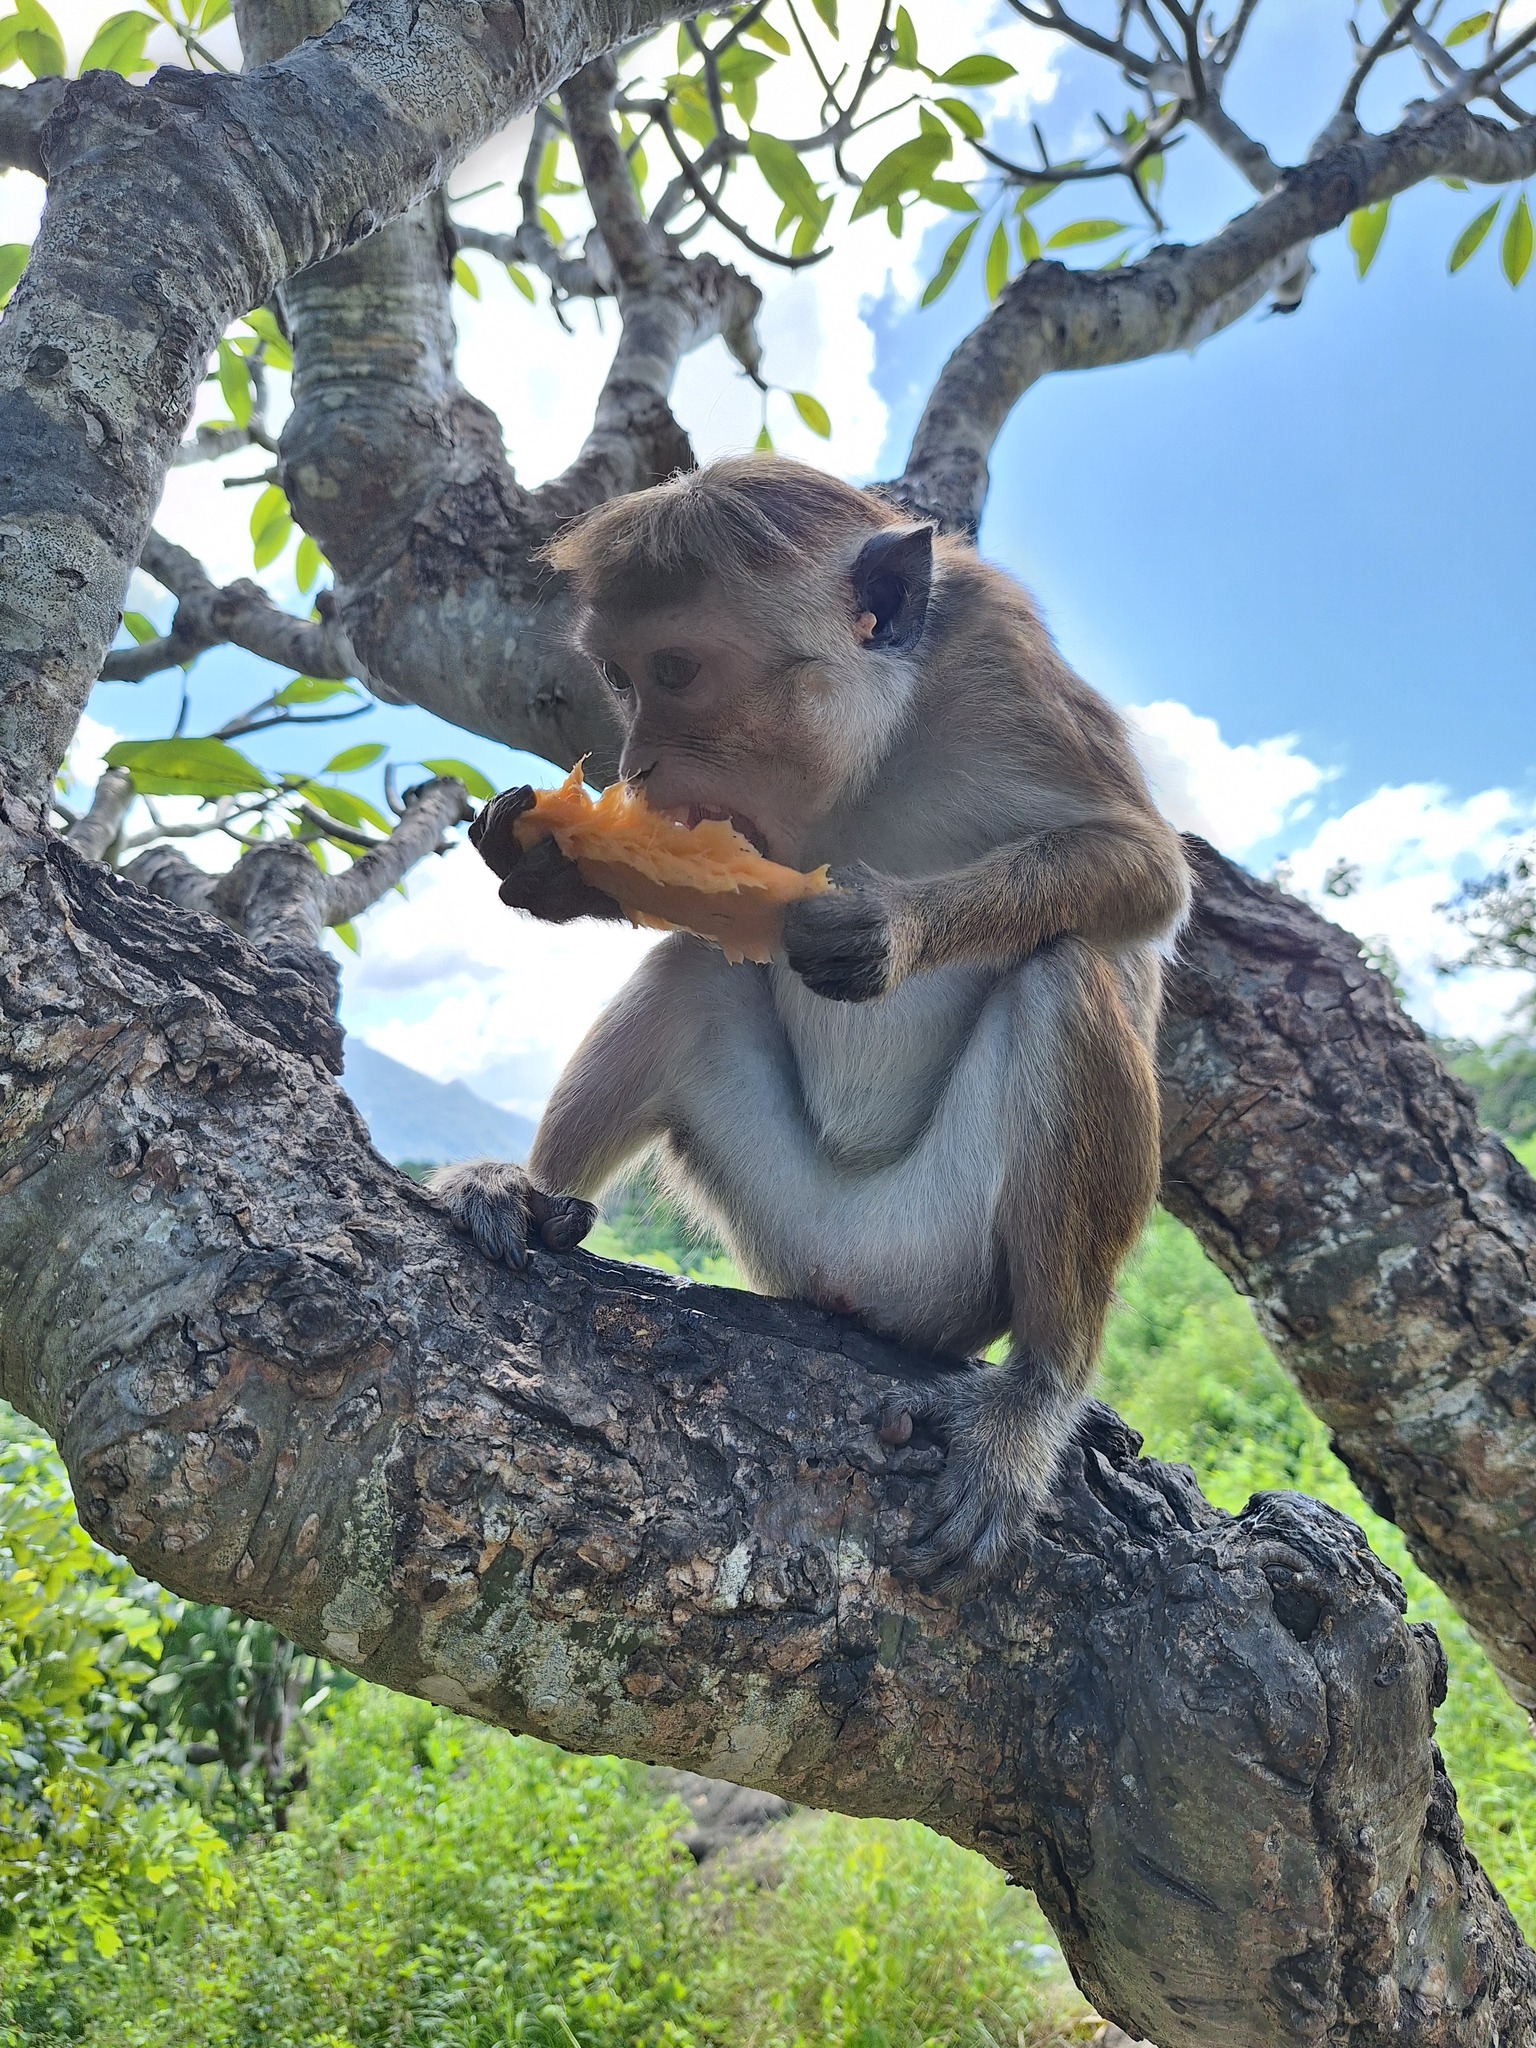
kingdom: Animalia
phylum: Chordata
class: Mammalia
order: Primates
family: Cercopithecidae
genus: Macaca
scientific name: Macaca sinica
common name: Toque macaque
